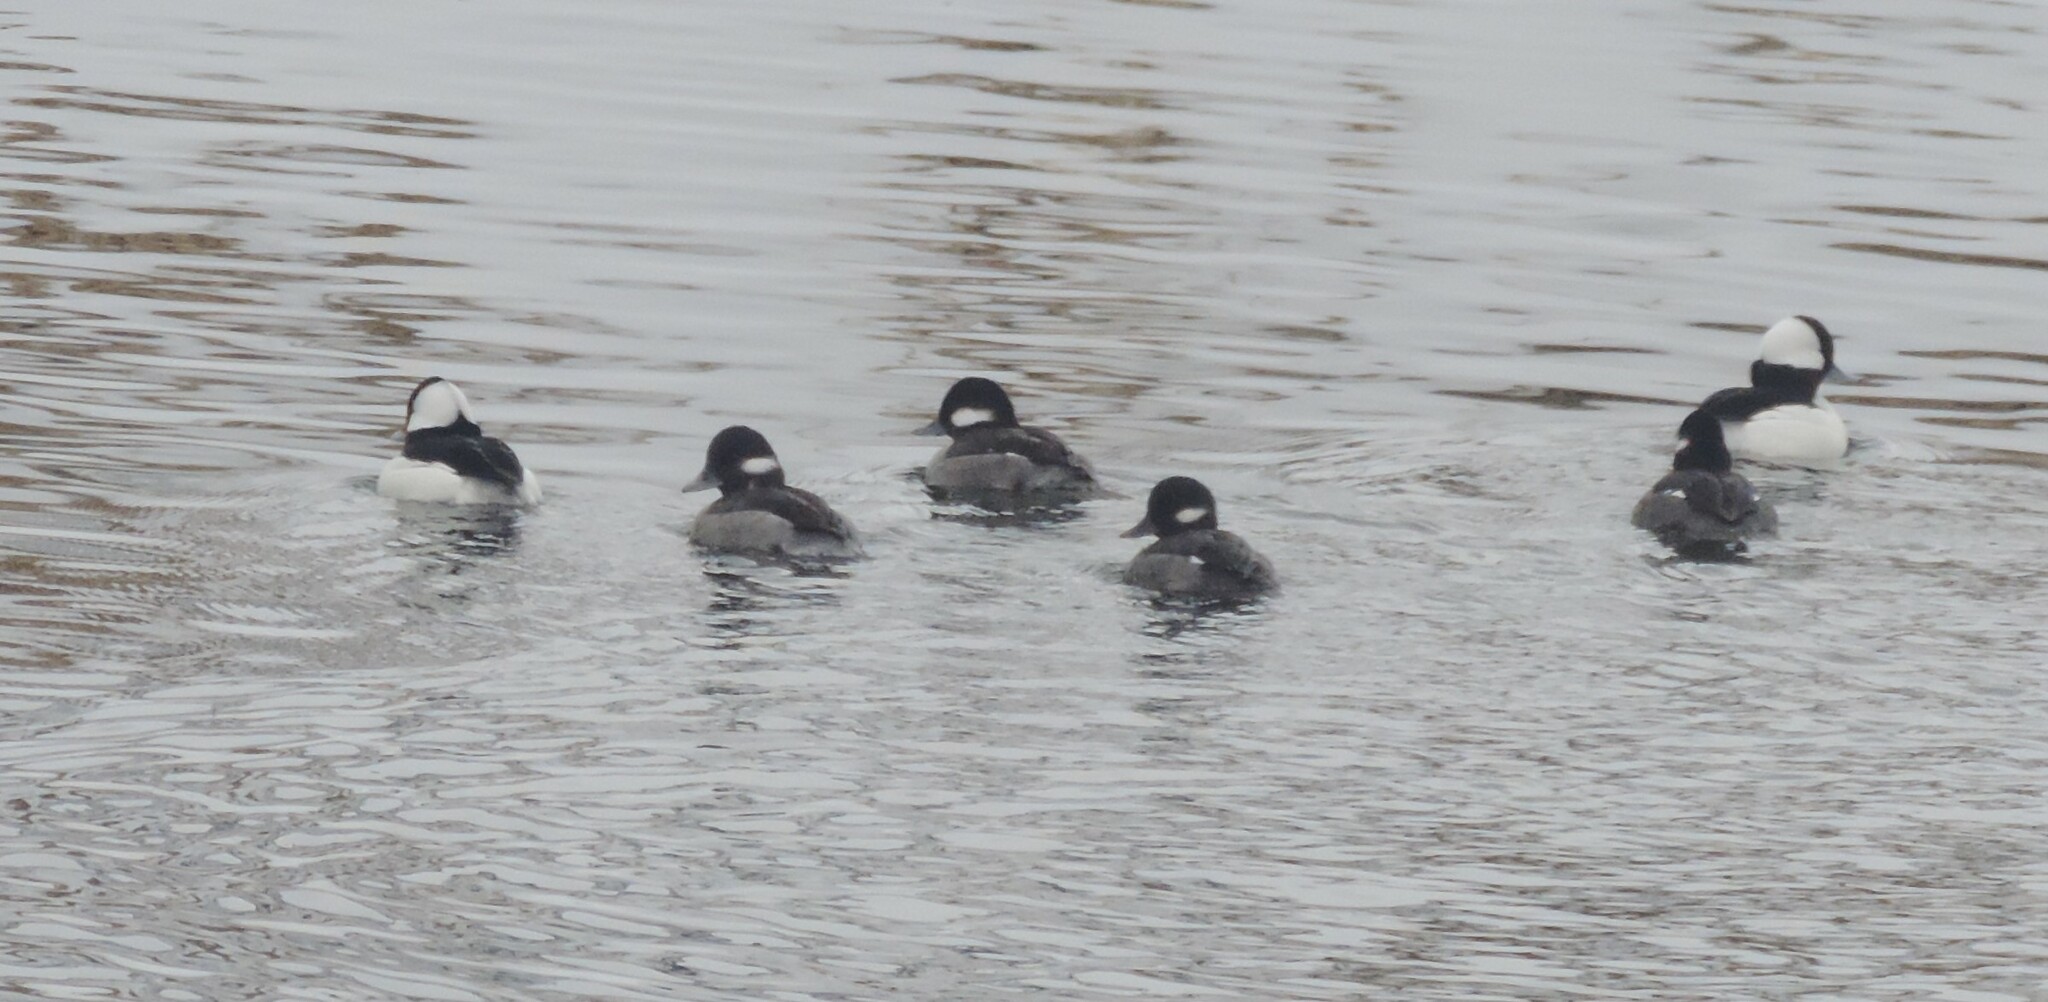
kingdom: Animalia
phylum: Chordata
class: Aves
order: Anseriformes
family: Anatidae
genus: Bucephala
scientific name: Bucephala albeola
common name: Bufflehead
